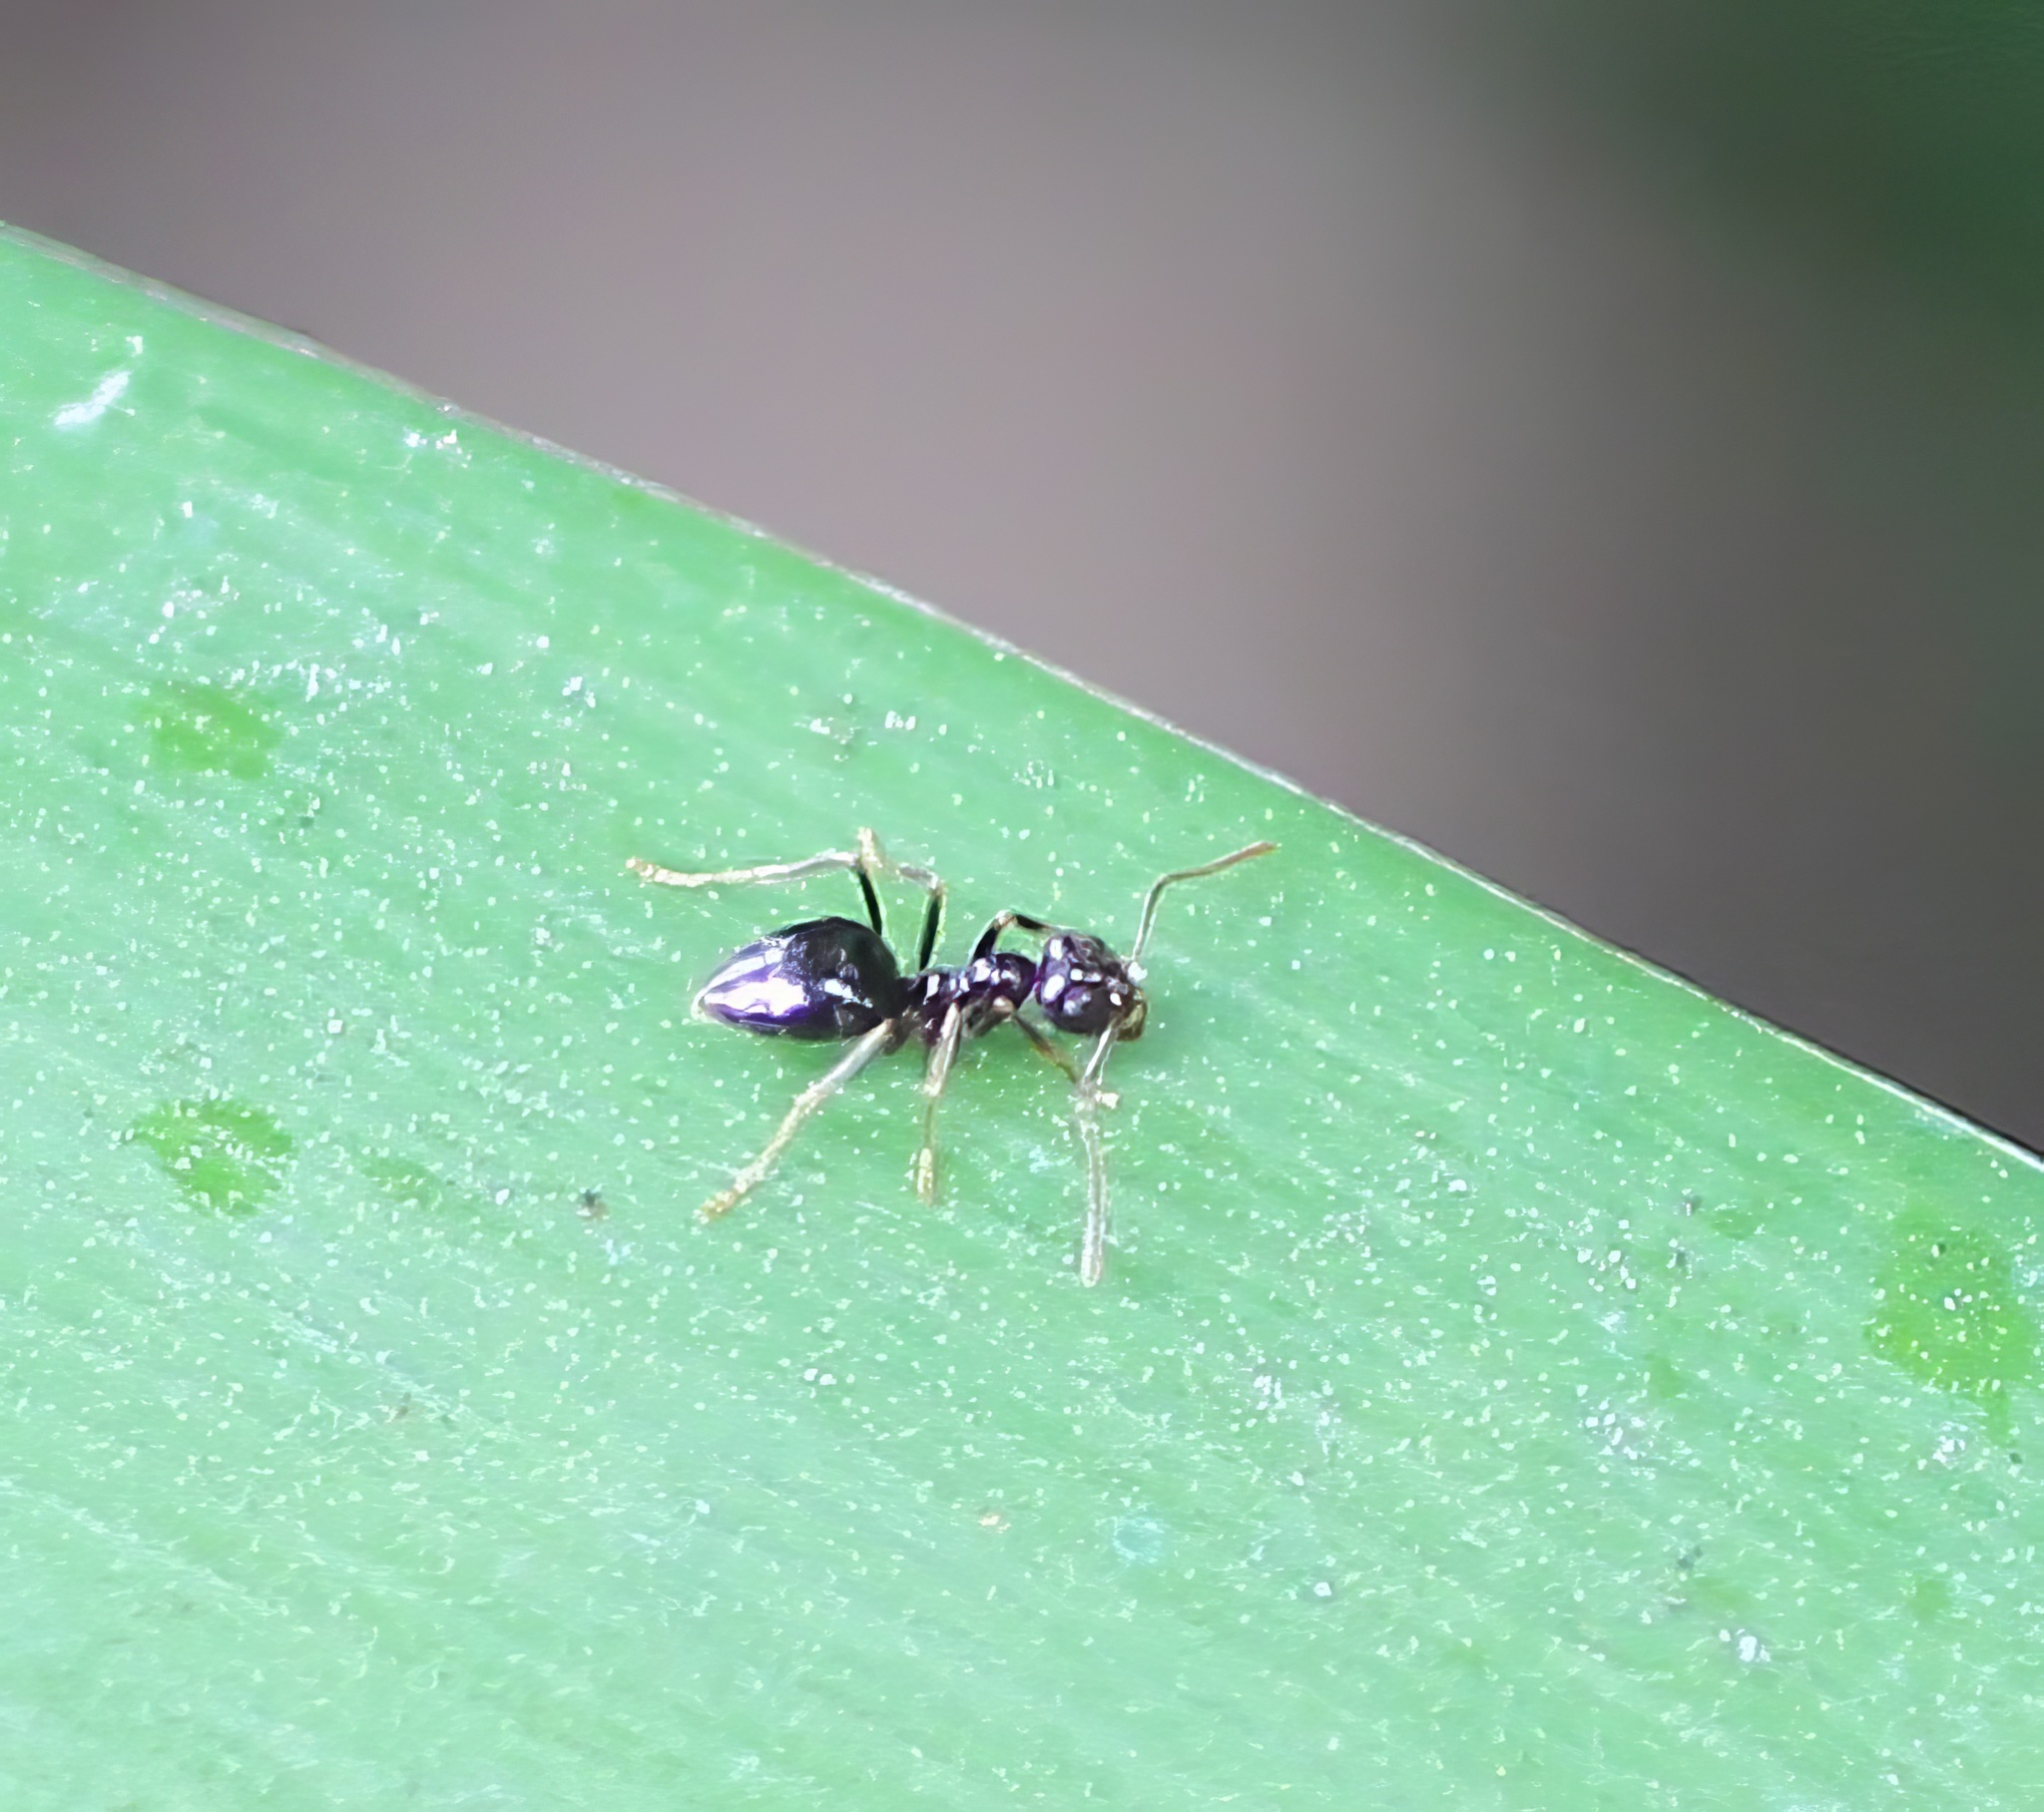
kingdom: Animalia
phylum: Arthropoda
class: Insecta
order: Hymenoptera
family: Formicidae
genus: Prenolepis
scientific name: Prenolepis imparis
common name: Small honey ant
